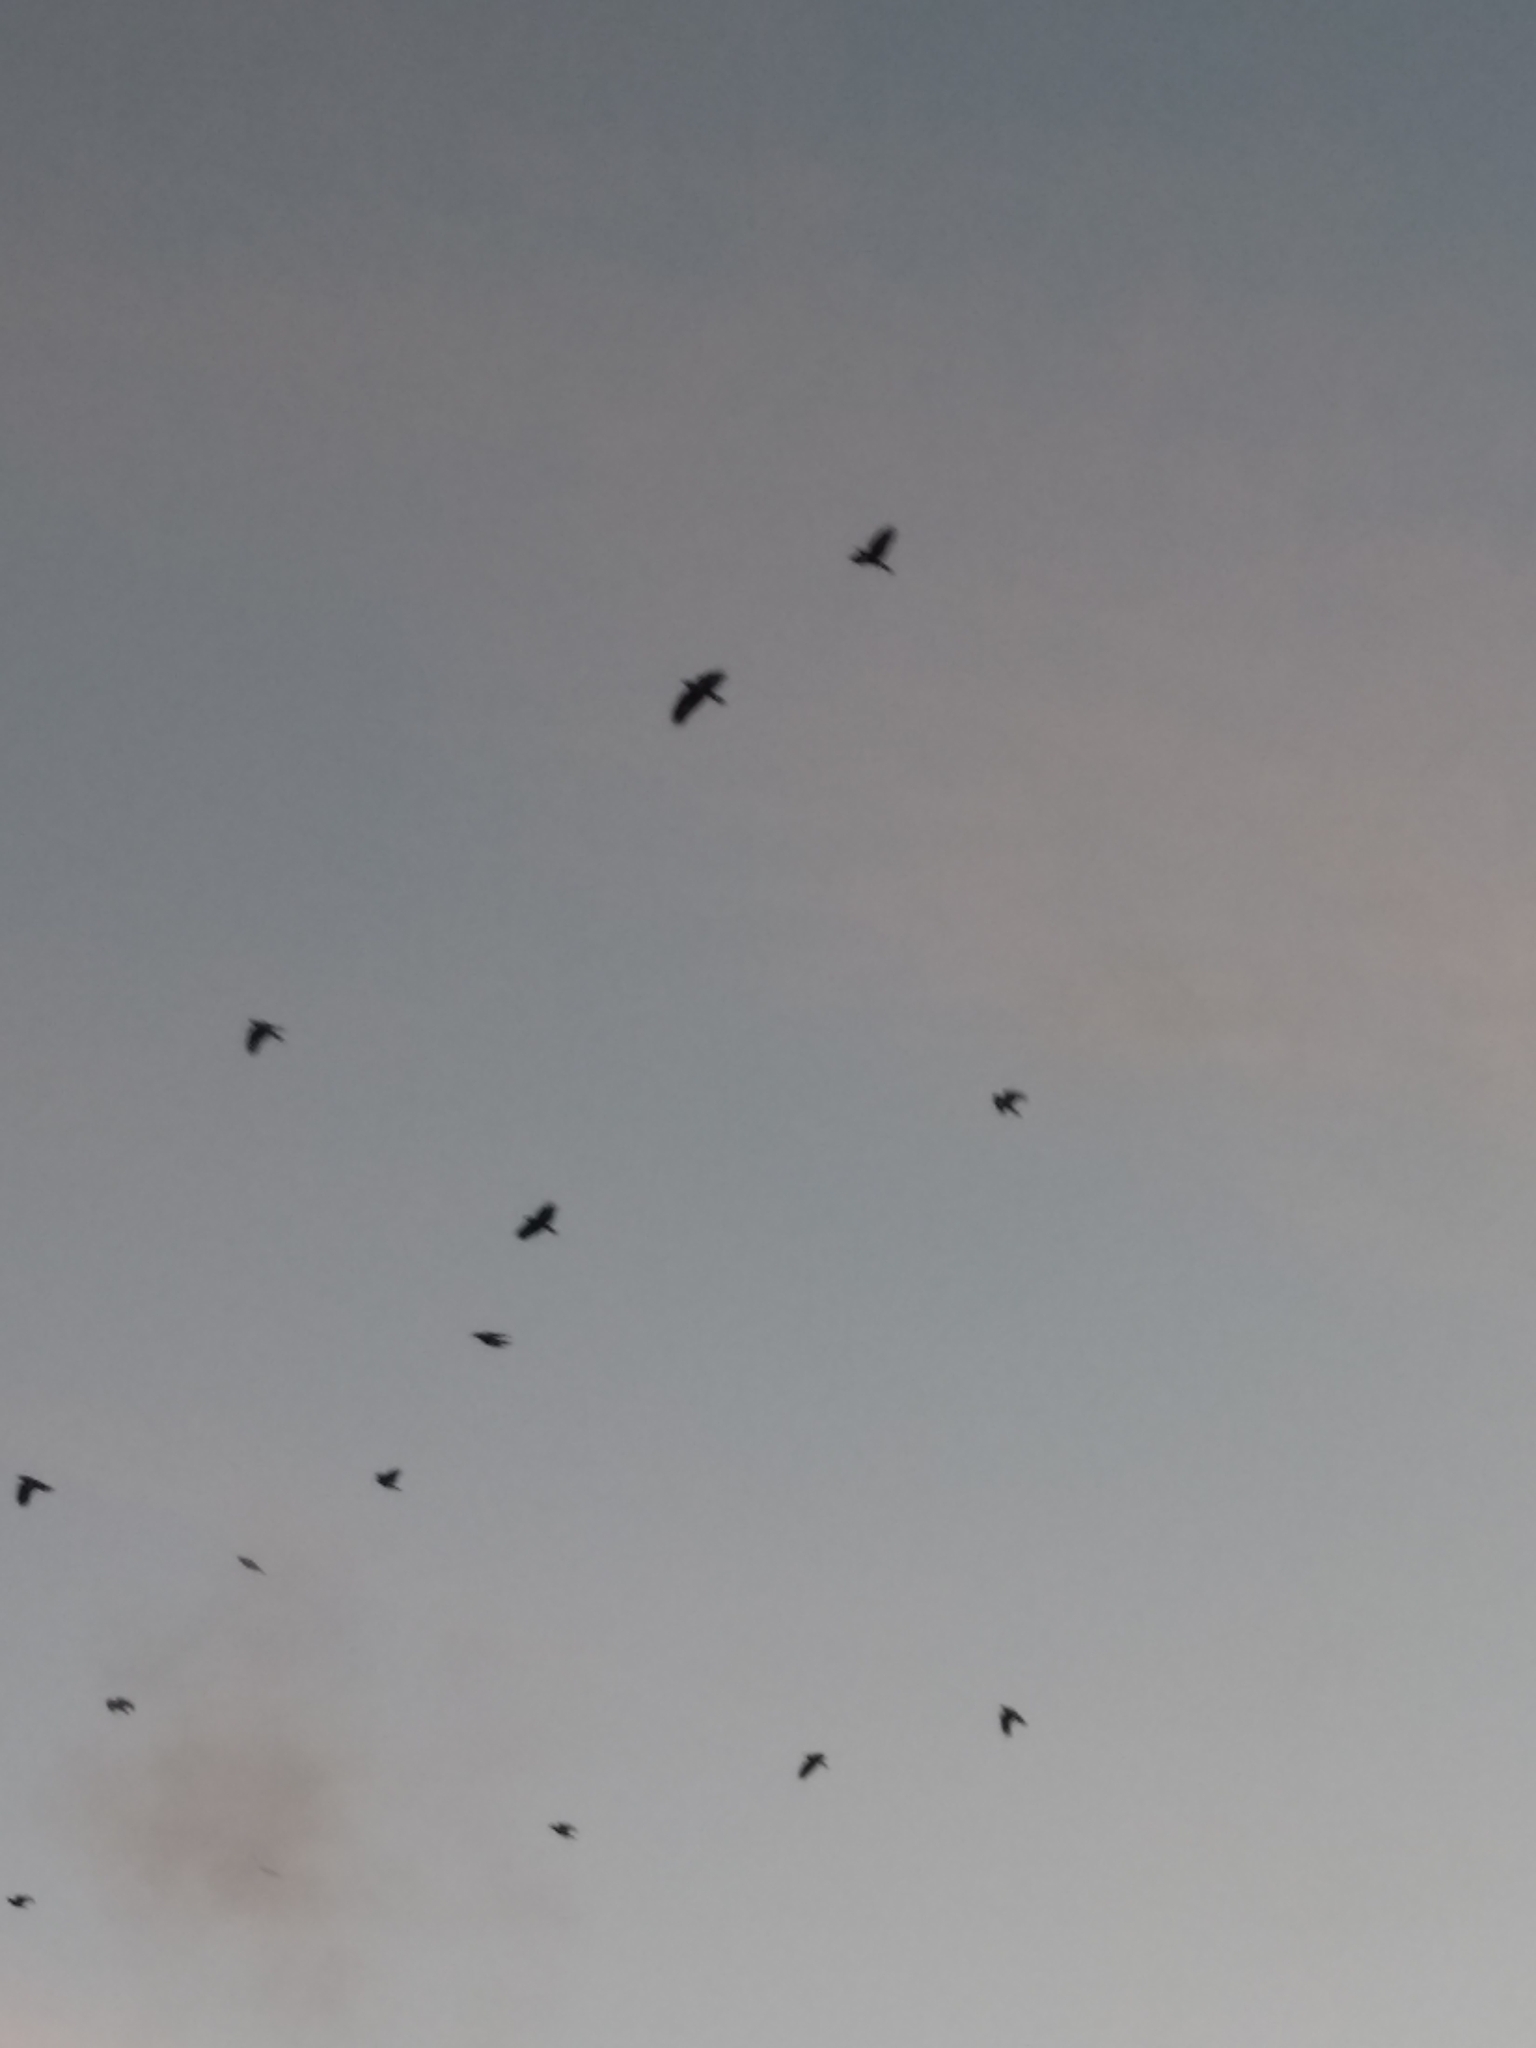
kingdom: Animalia
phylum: Chordata
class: Aves
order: Passeriformes
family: Corvidae
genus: Corvus
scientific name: Corvus brachyrhynchos
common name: American crow
